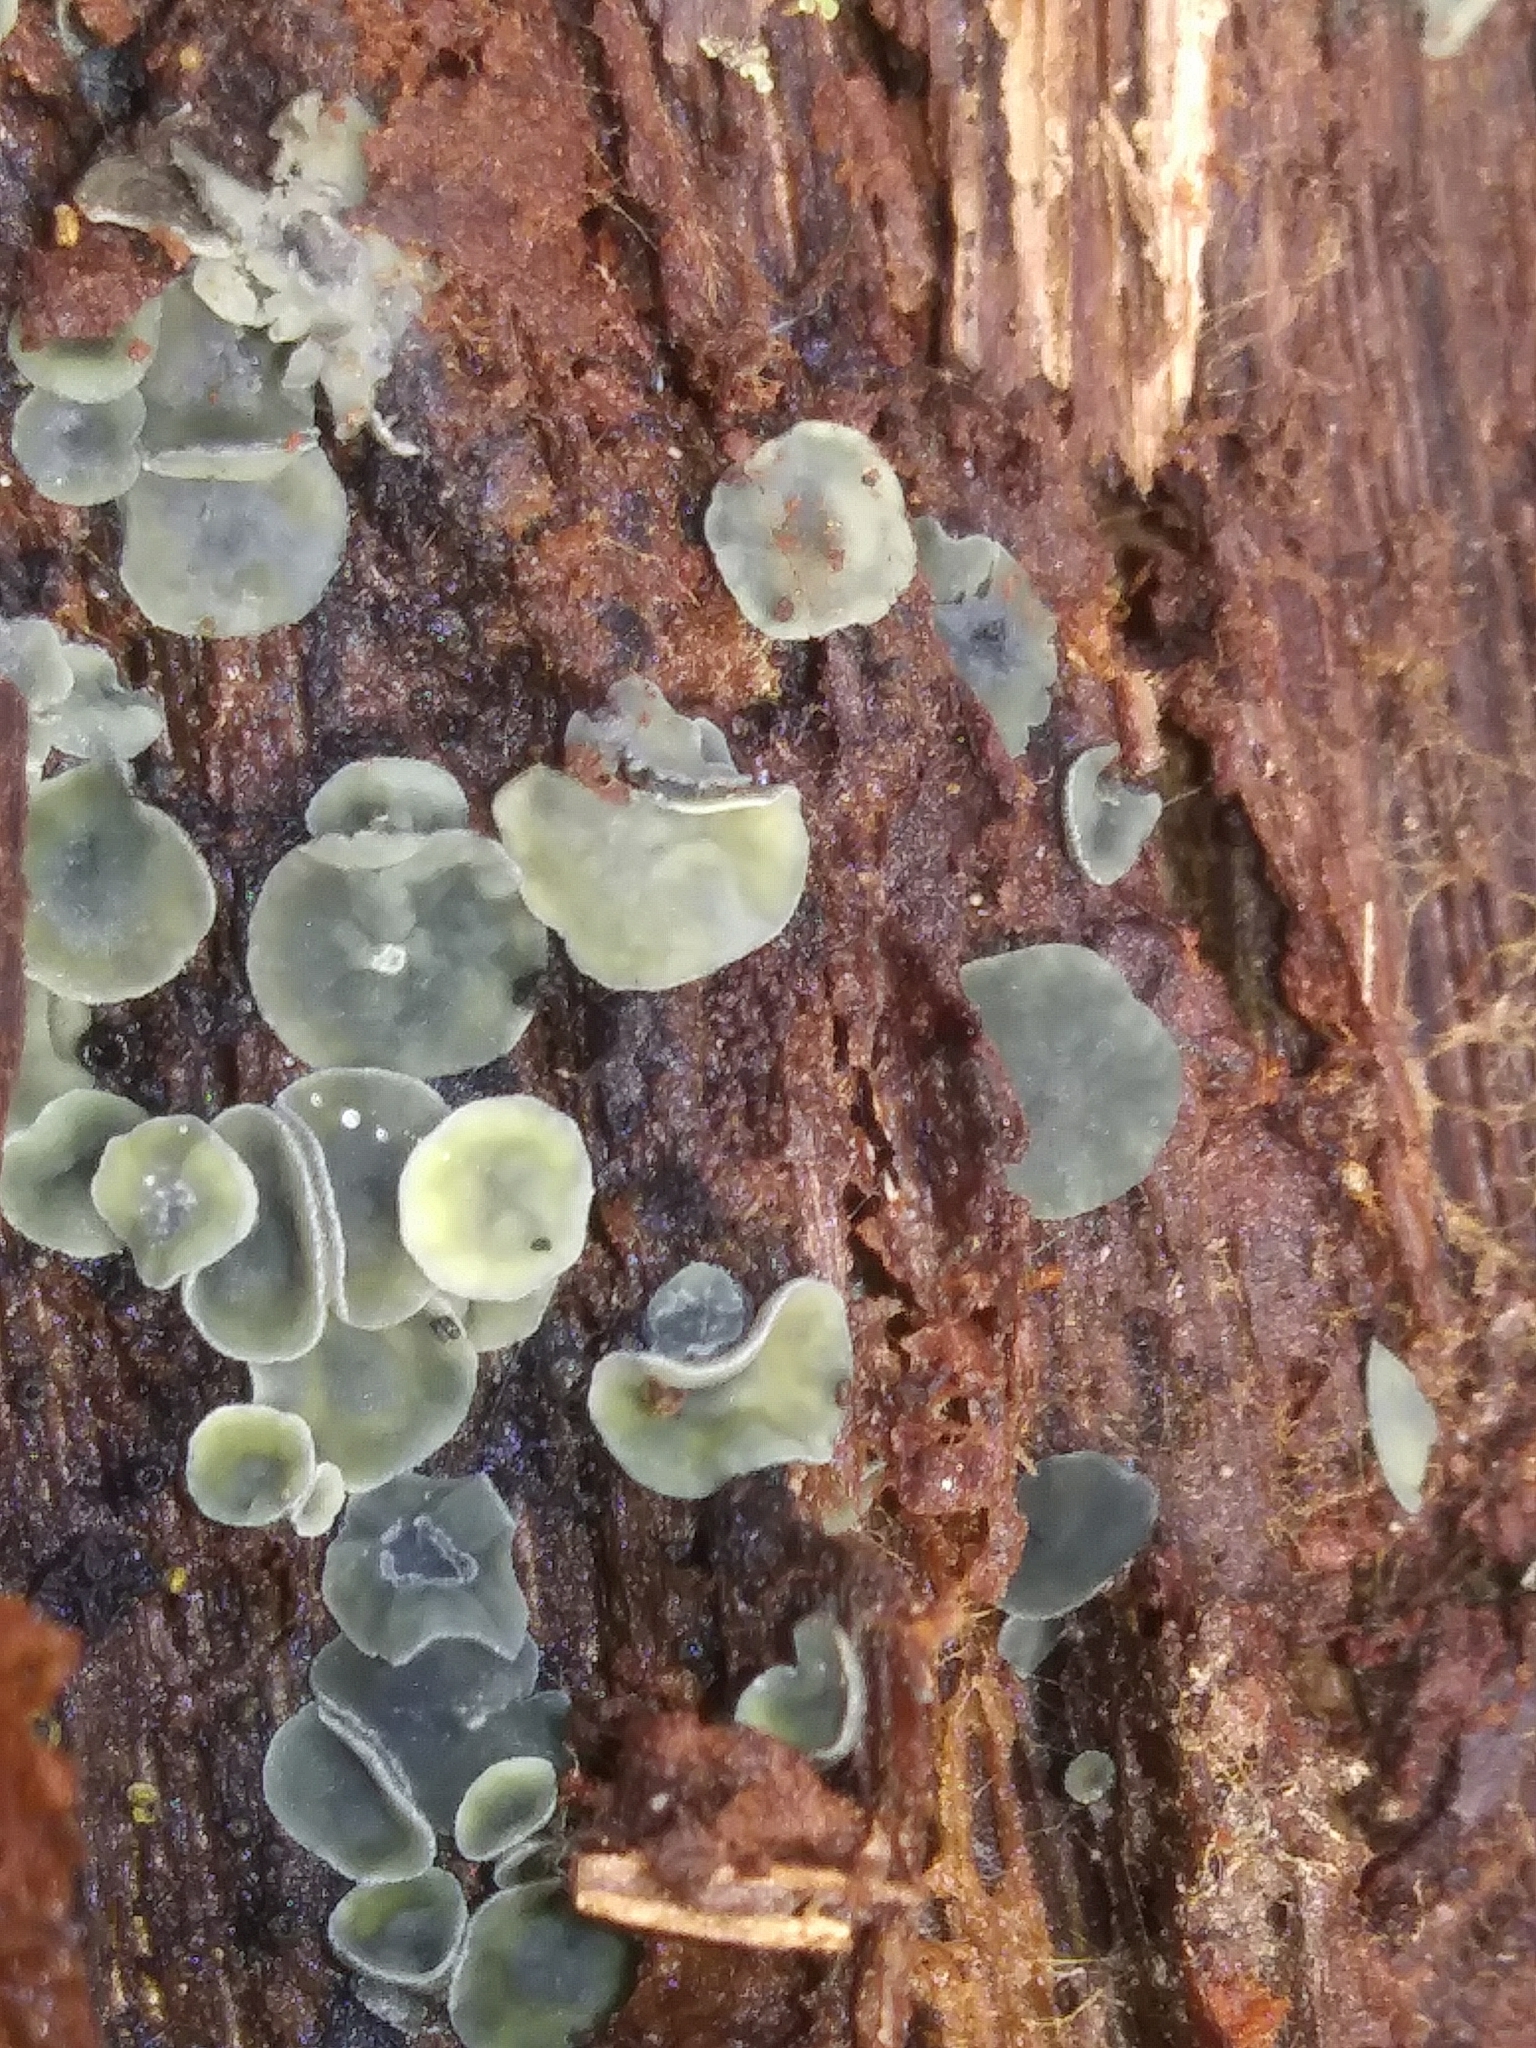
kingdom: Fungi
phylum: Ascomycota
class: Leotiomycetes
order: Helotiales
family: Chlorospleniaceae
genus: Chlorosplenium
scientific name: Chlorosplenium chlora
